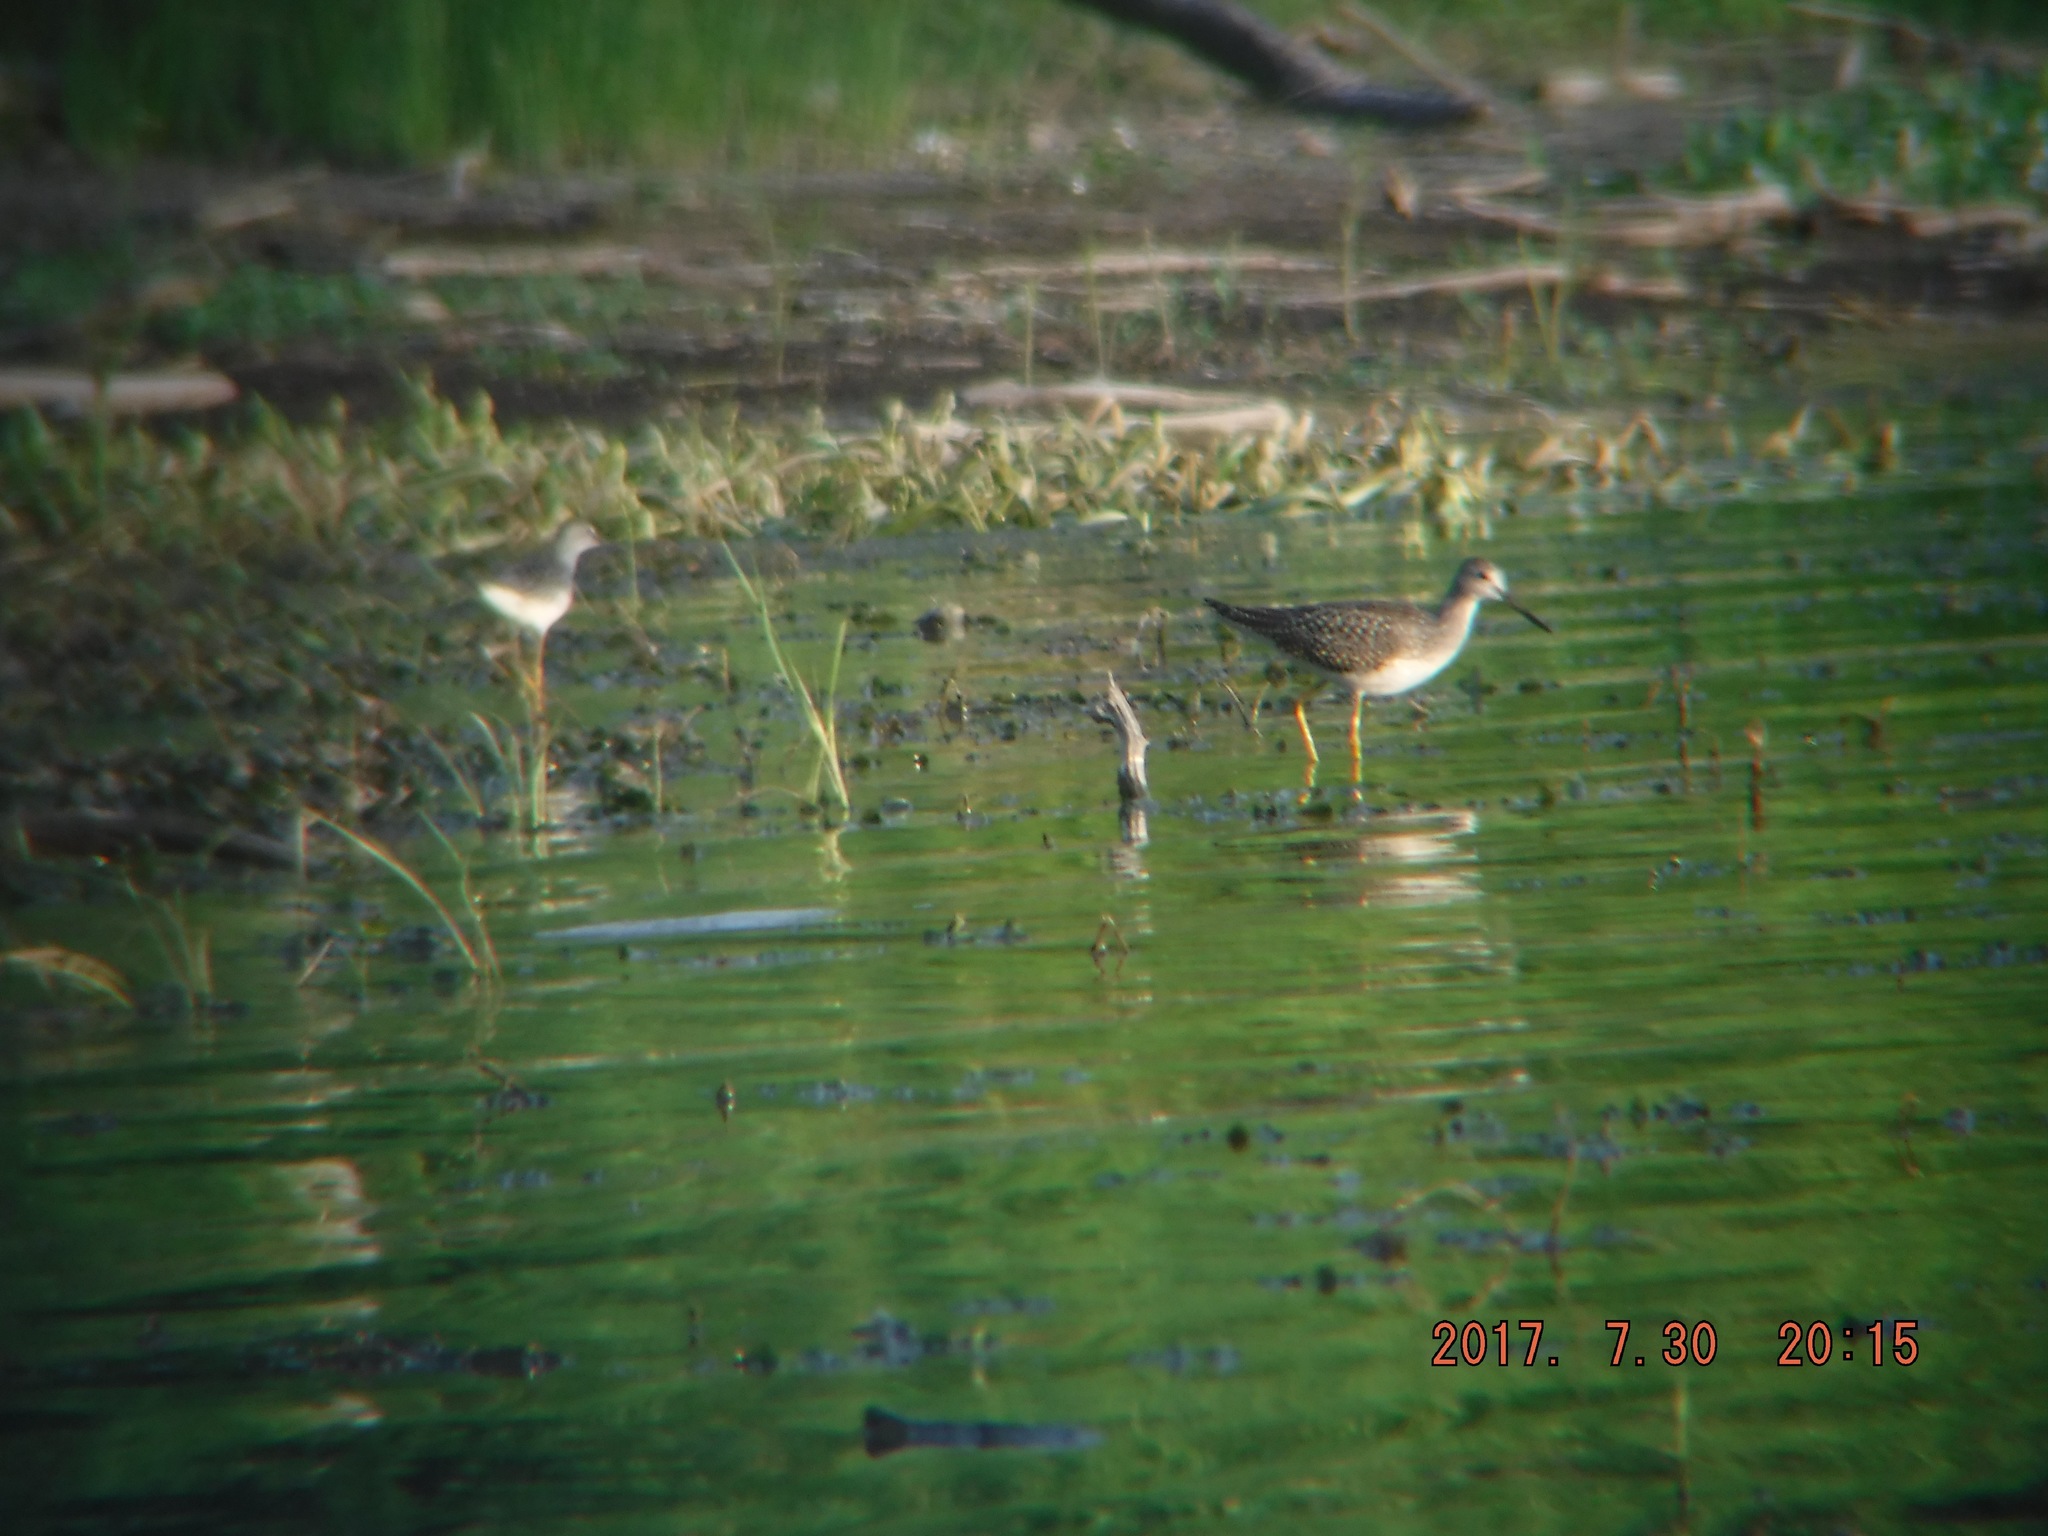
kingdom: Animalia
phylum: Chordata
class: Aves
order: Charadriiformes
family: Scolopacidae
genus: Tringa
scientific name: Tringa melanoleuca
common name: Greater yellowlegs
